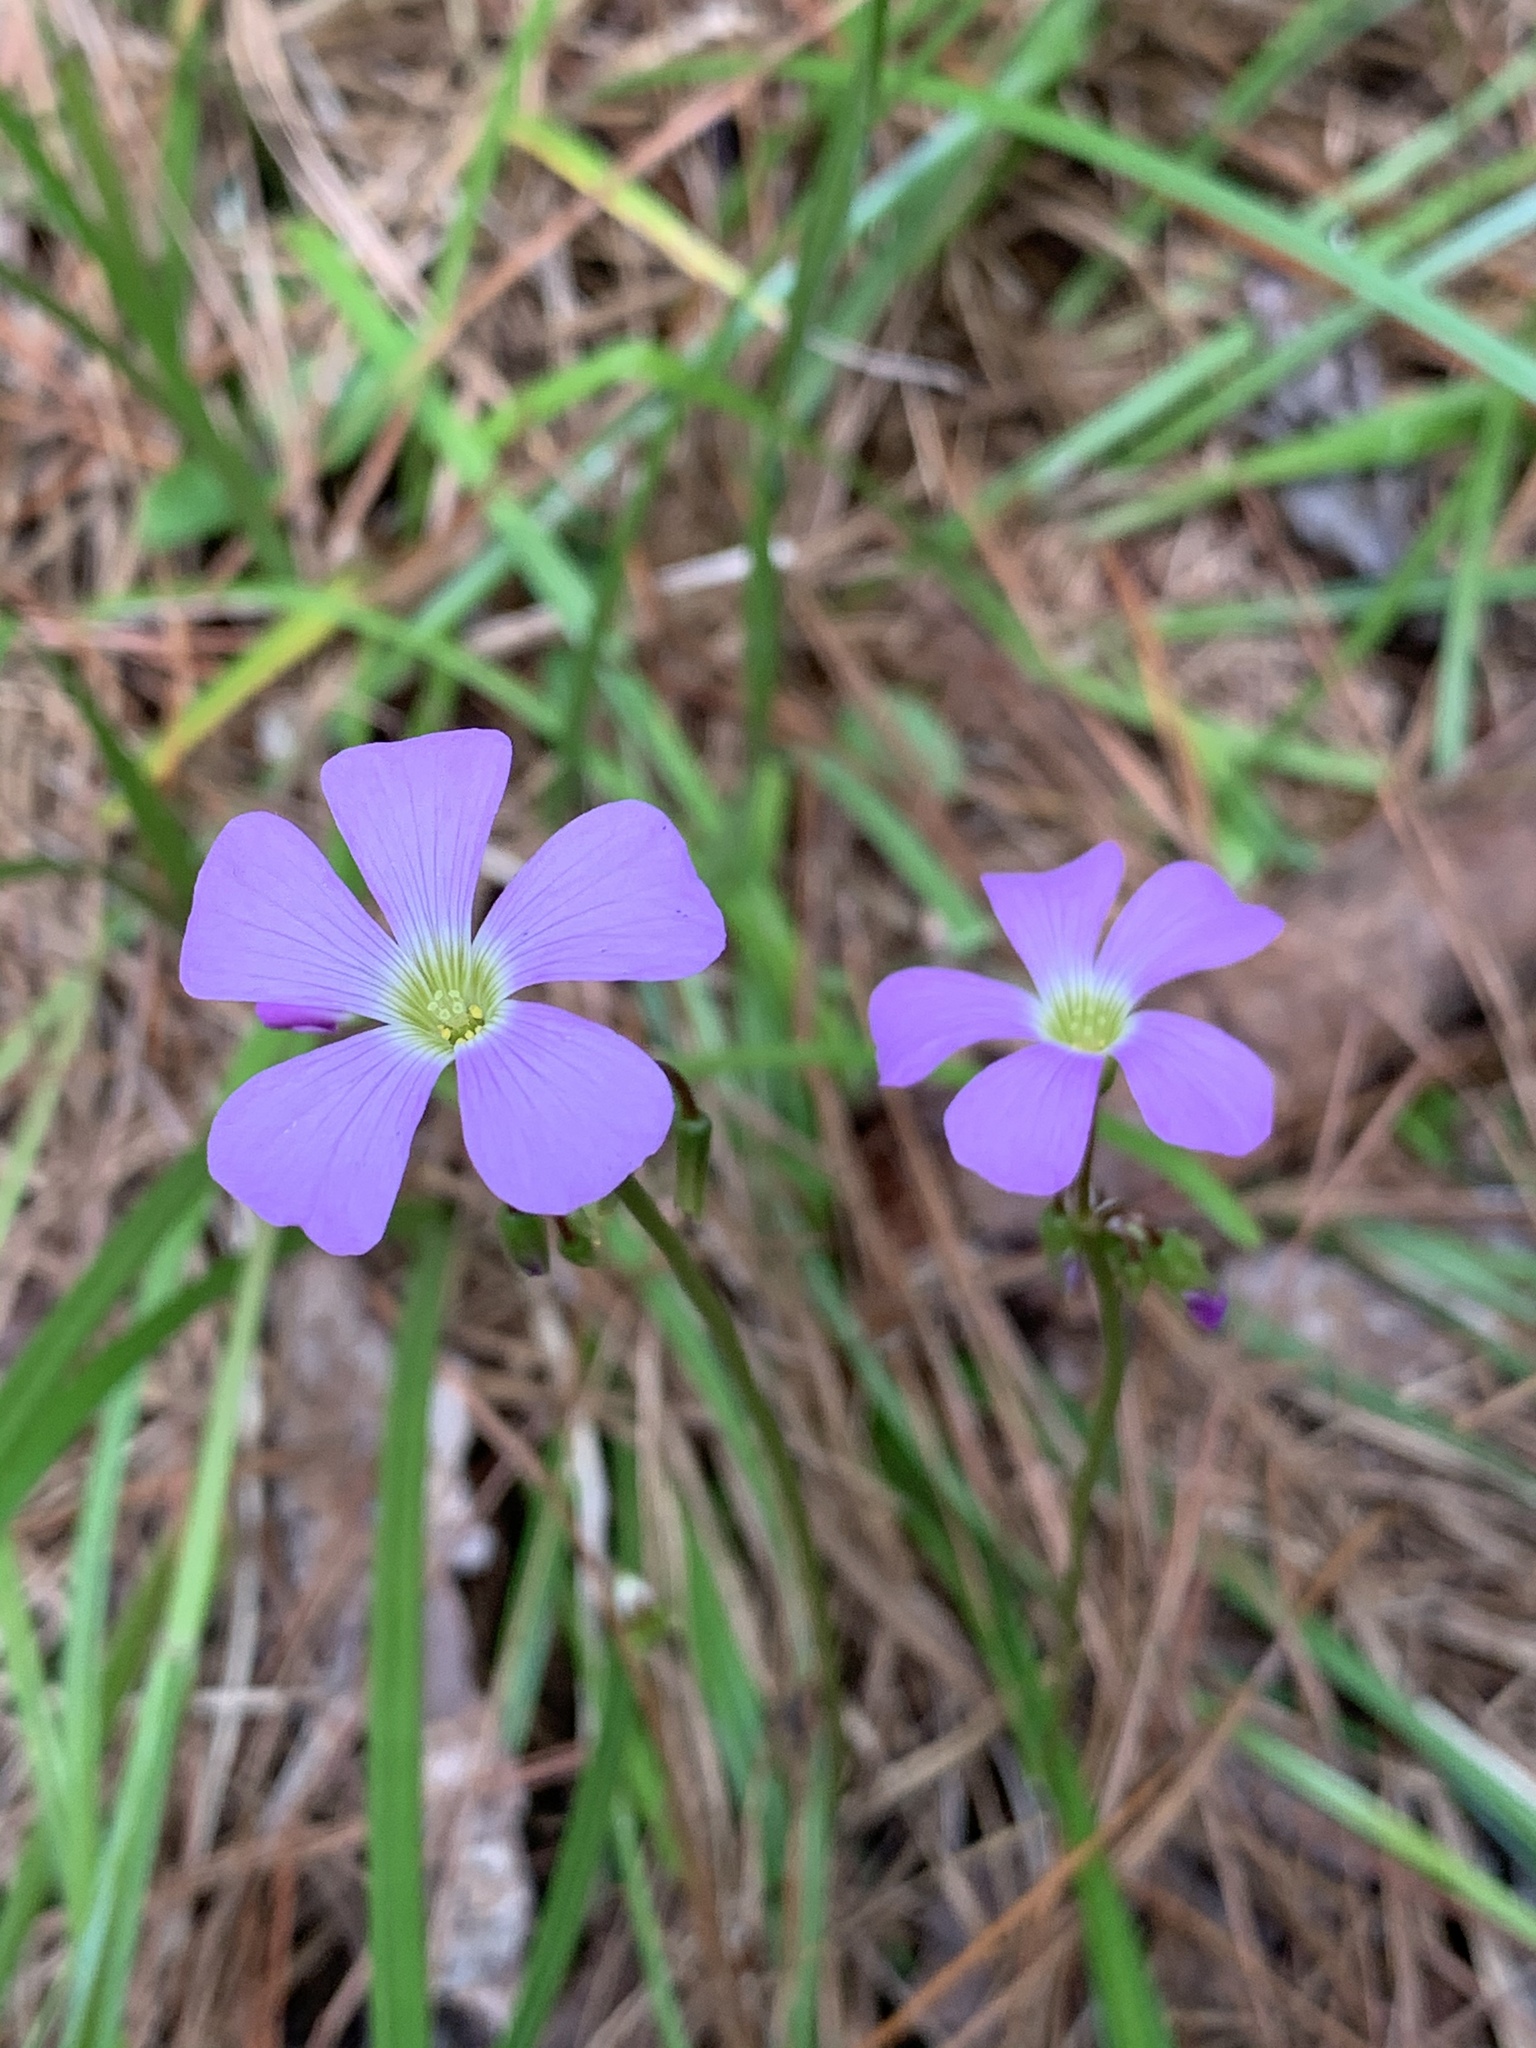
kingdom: Plantae
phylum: Tracheophyta
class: Magnoliopsida
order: Oxalidales
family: Oxalidaceae
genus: Oxalis
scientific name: Oxalis violacea
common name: Violet wood-sorrel
